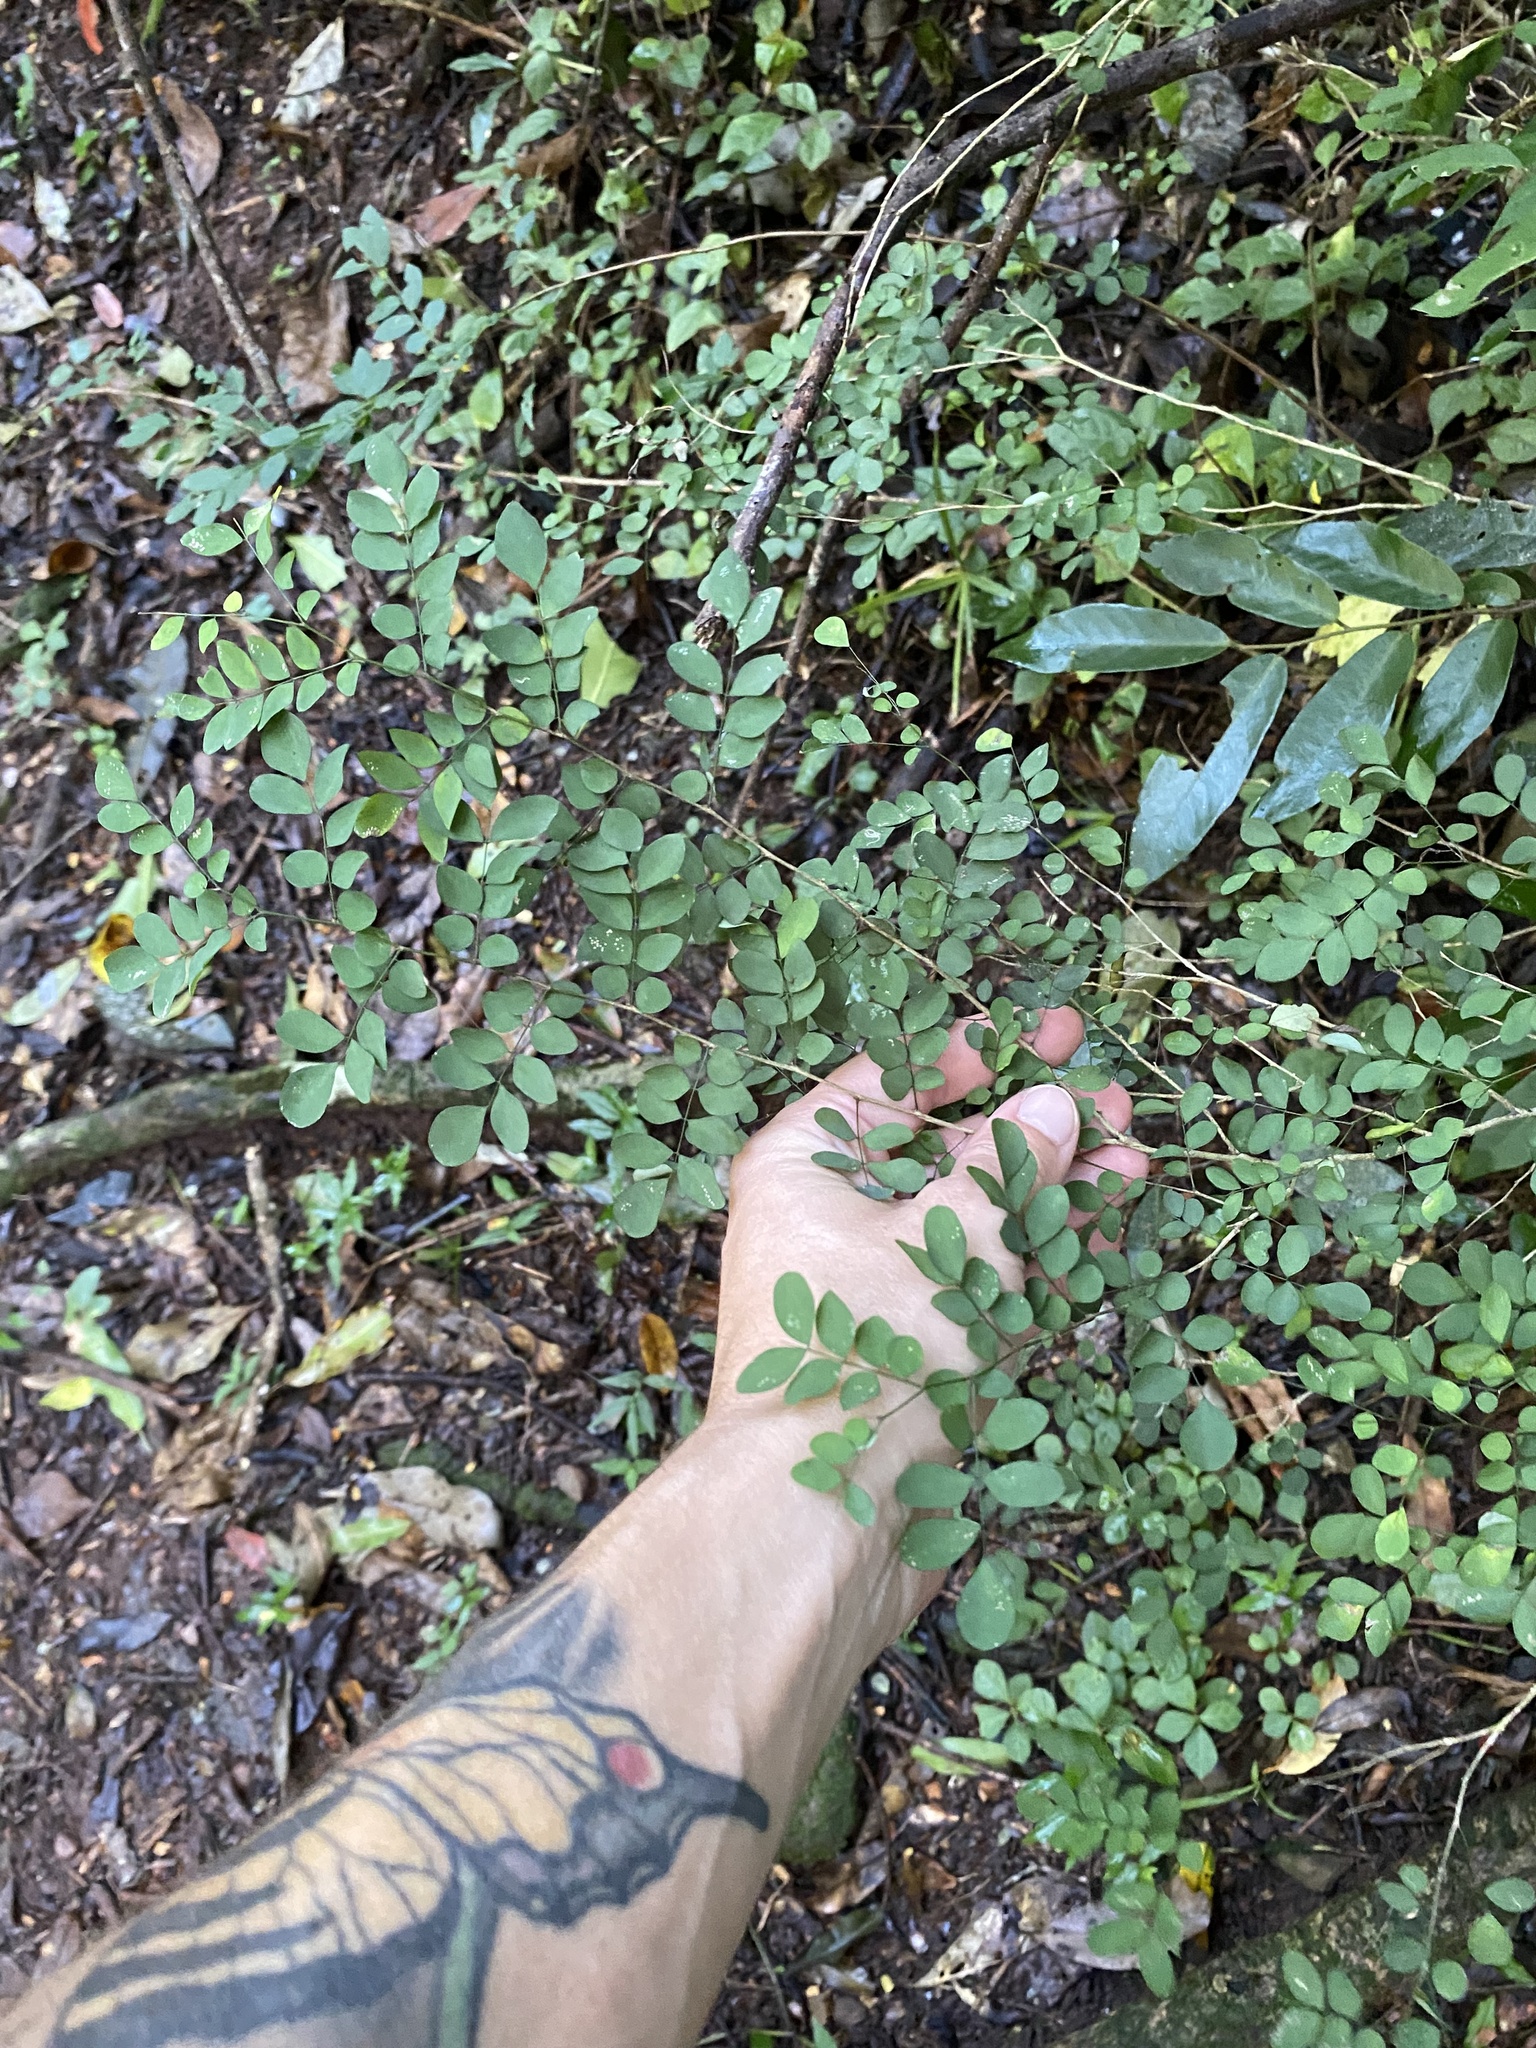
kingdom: Plantae
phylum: Tracheophyta
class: Magnoliopsida
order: Fabales
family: Fabaceae
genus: Indigofera
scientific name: Indigofera
